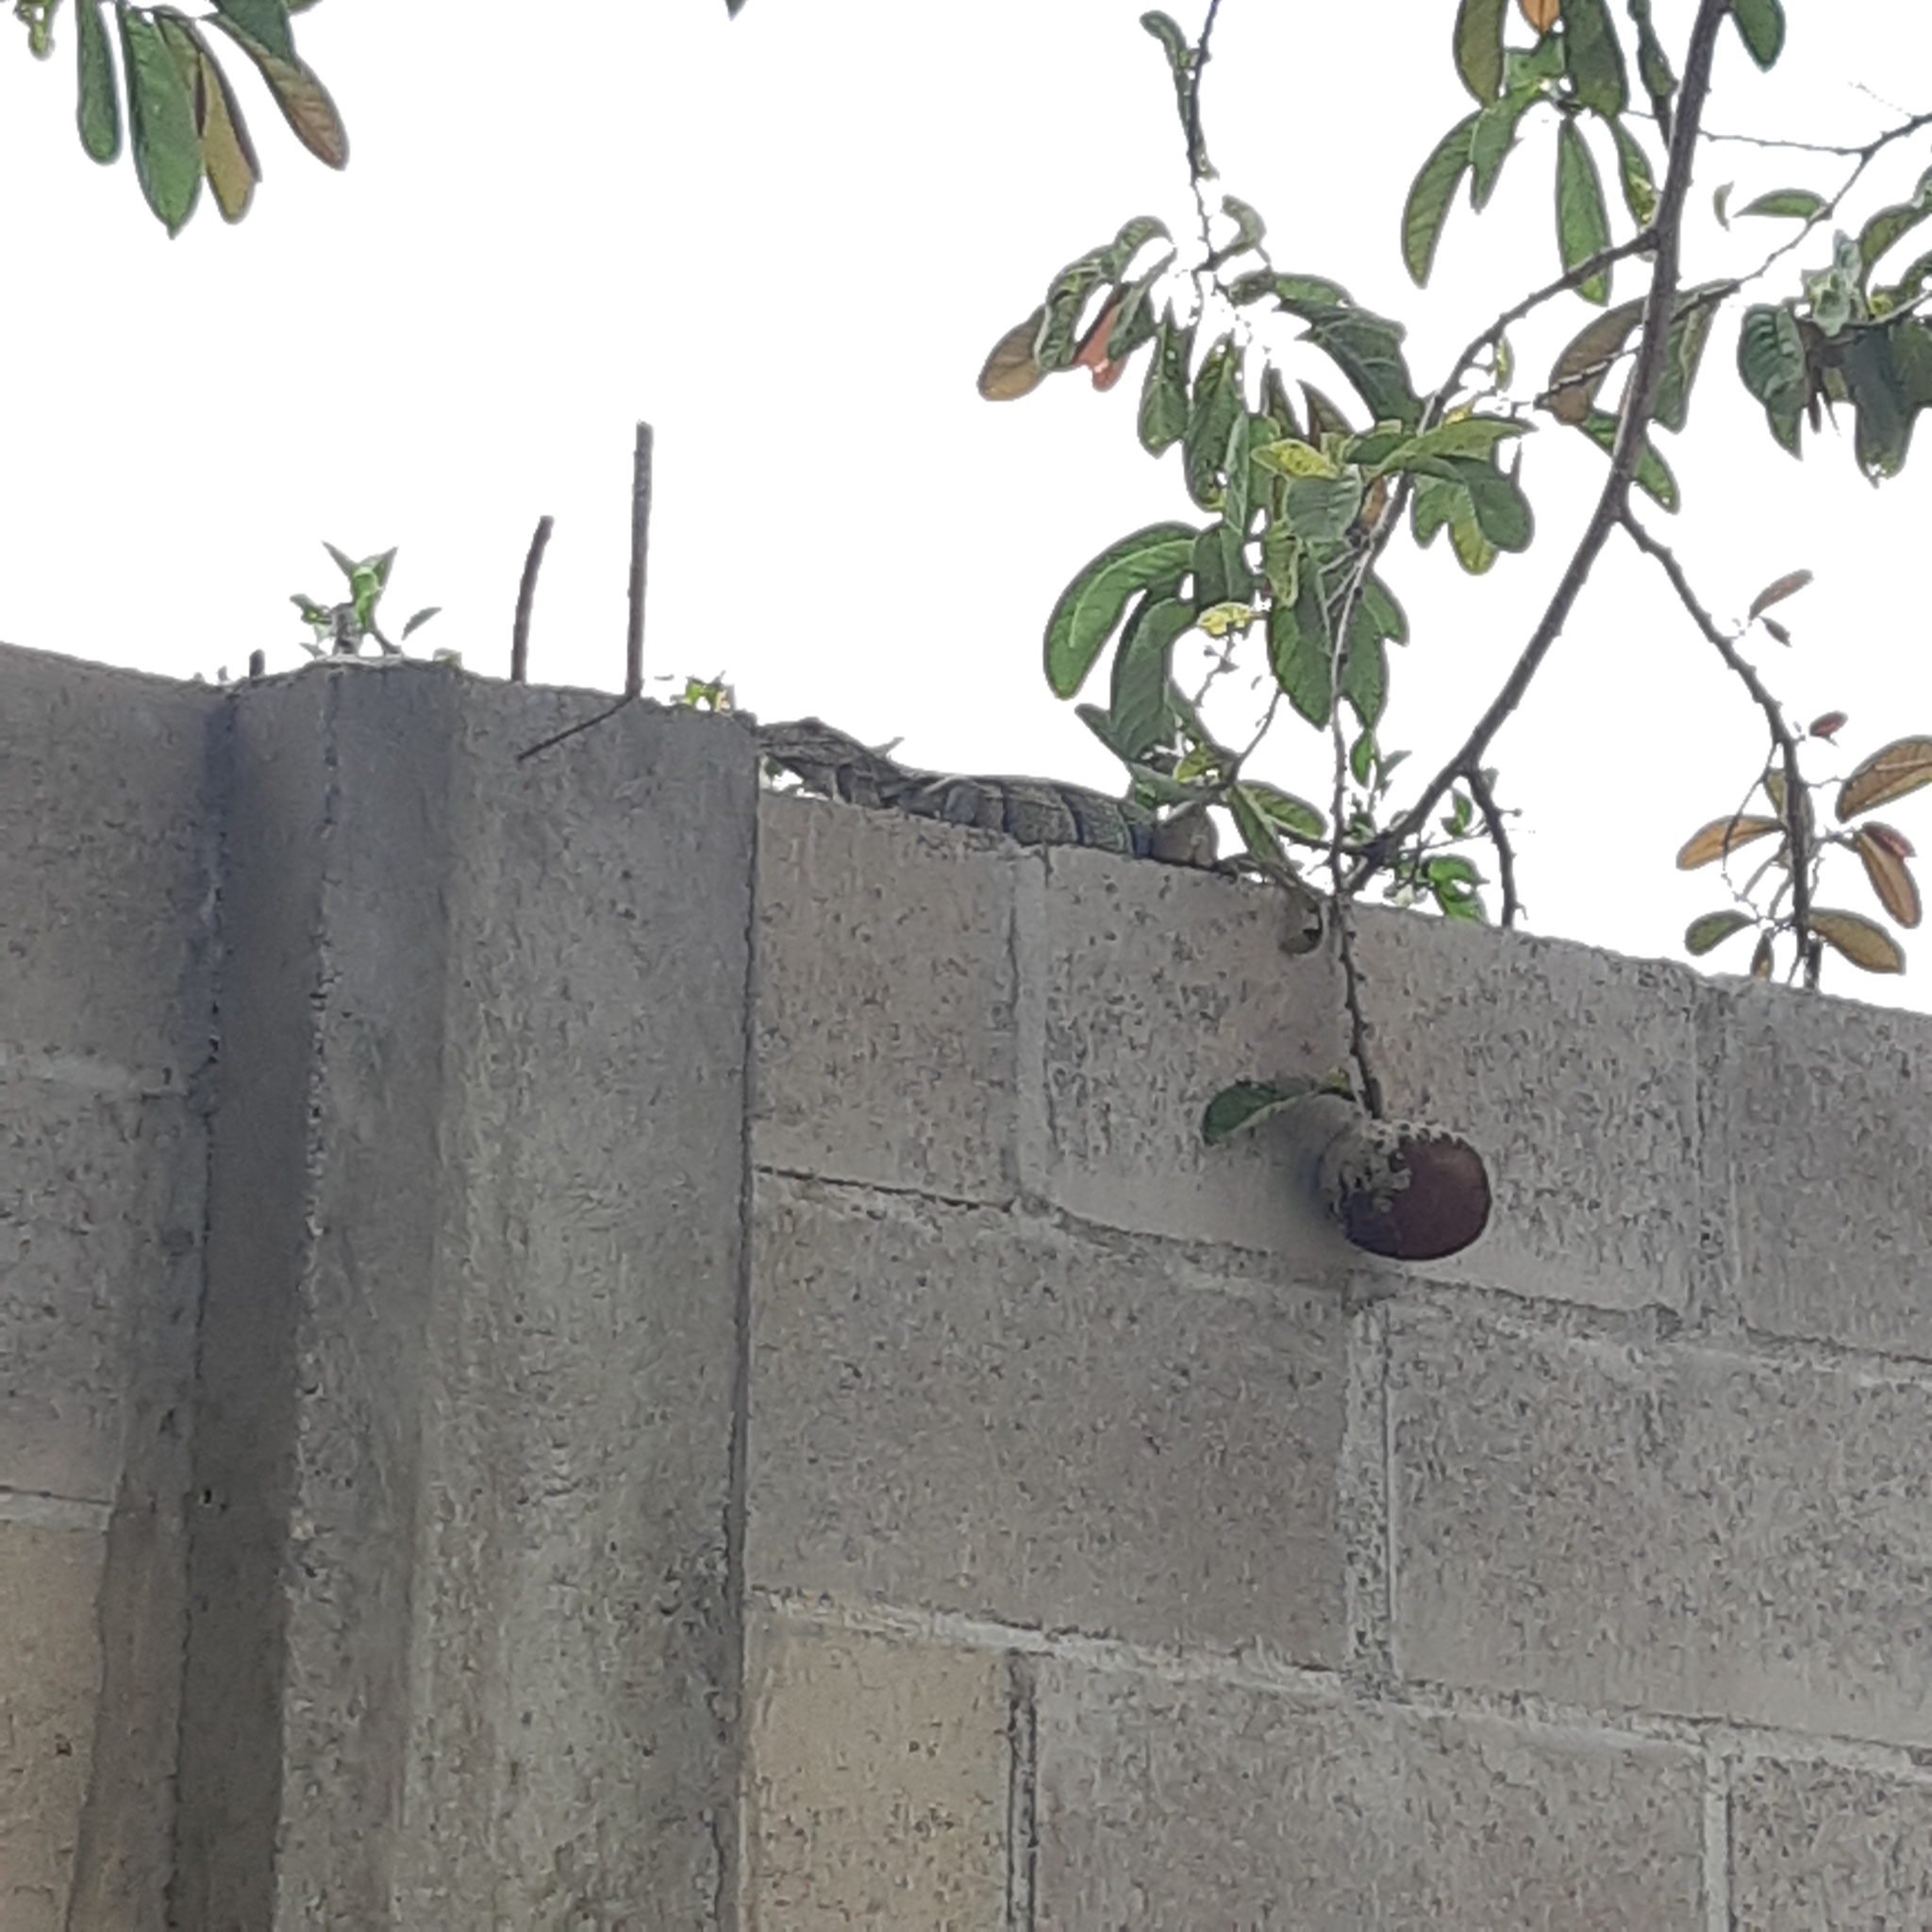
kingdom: Animalia
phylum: Chordata
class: Squamata
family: Iguanidae
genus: Ctenosaura
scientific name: Ctenosaura similis
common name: Black spiny-tailed iguana
